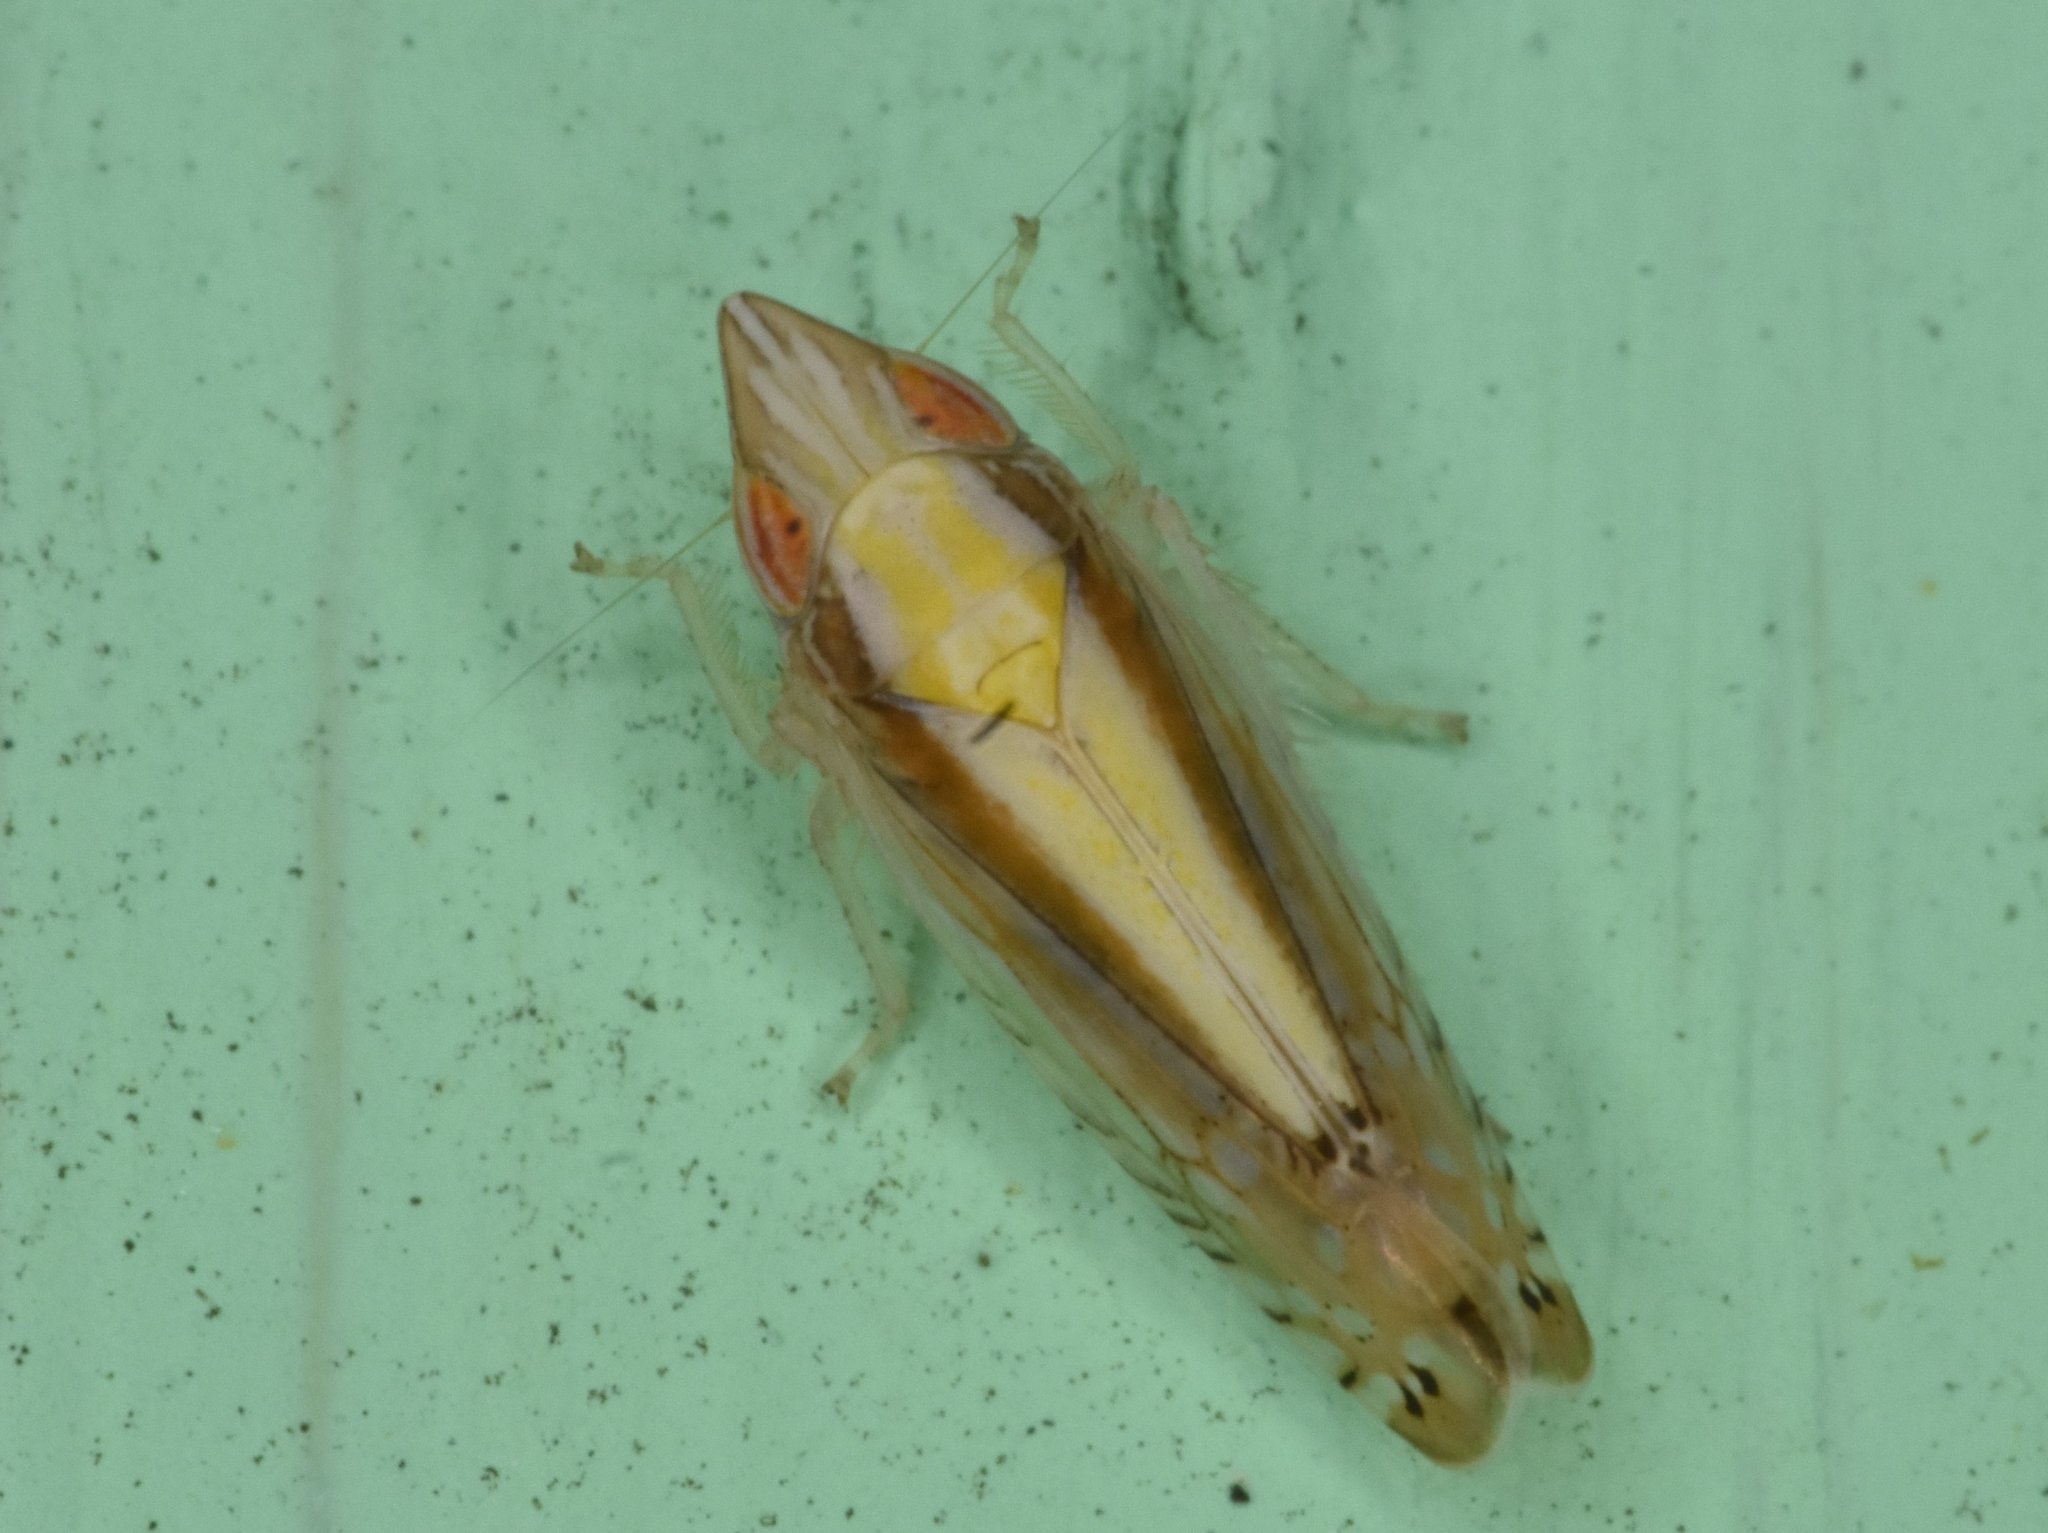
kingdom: Animalia
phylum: Arthropoda
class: Insecta
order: Hemiptera
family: Cicadellidae
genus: Scaphytopius
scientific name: Scaphytopius elegans
